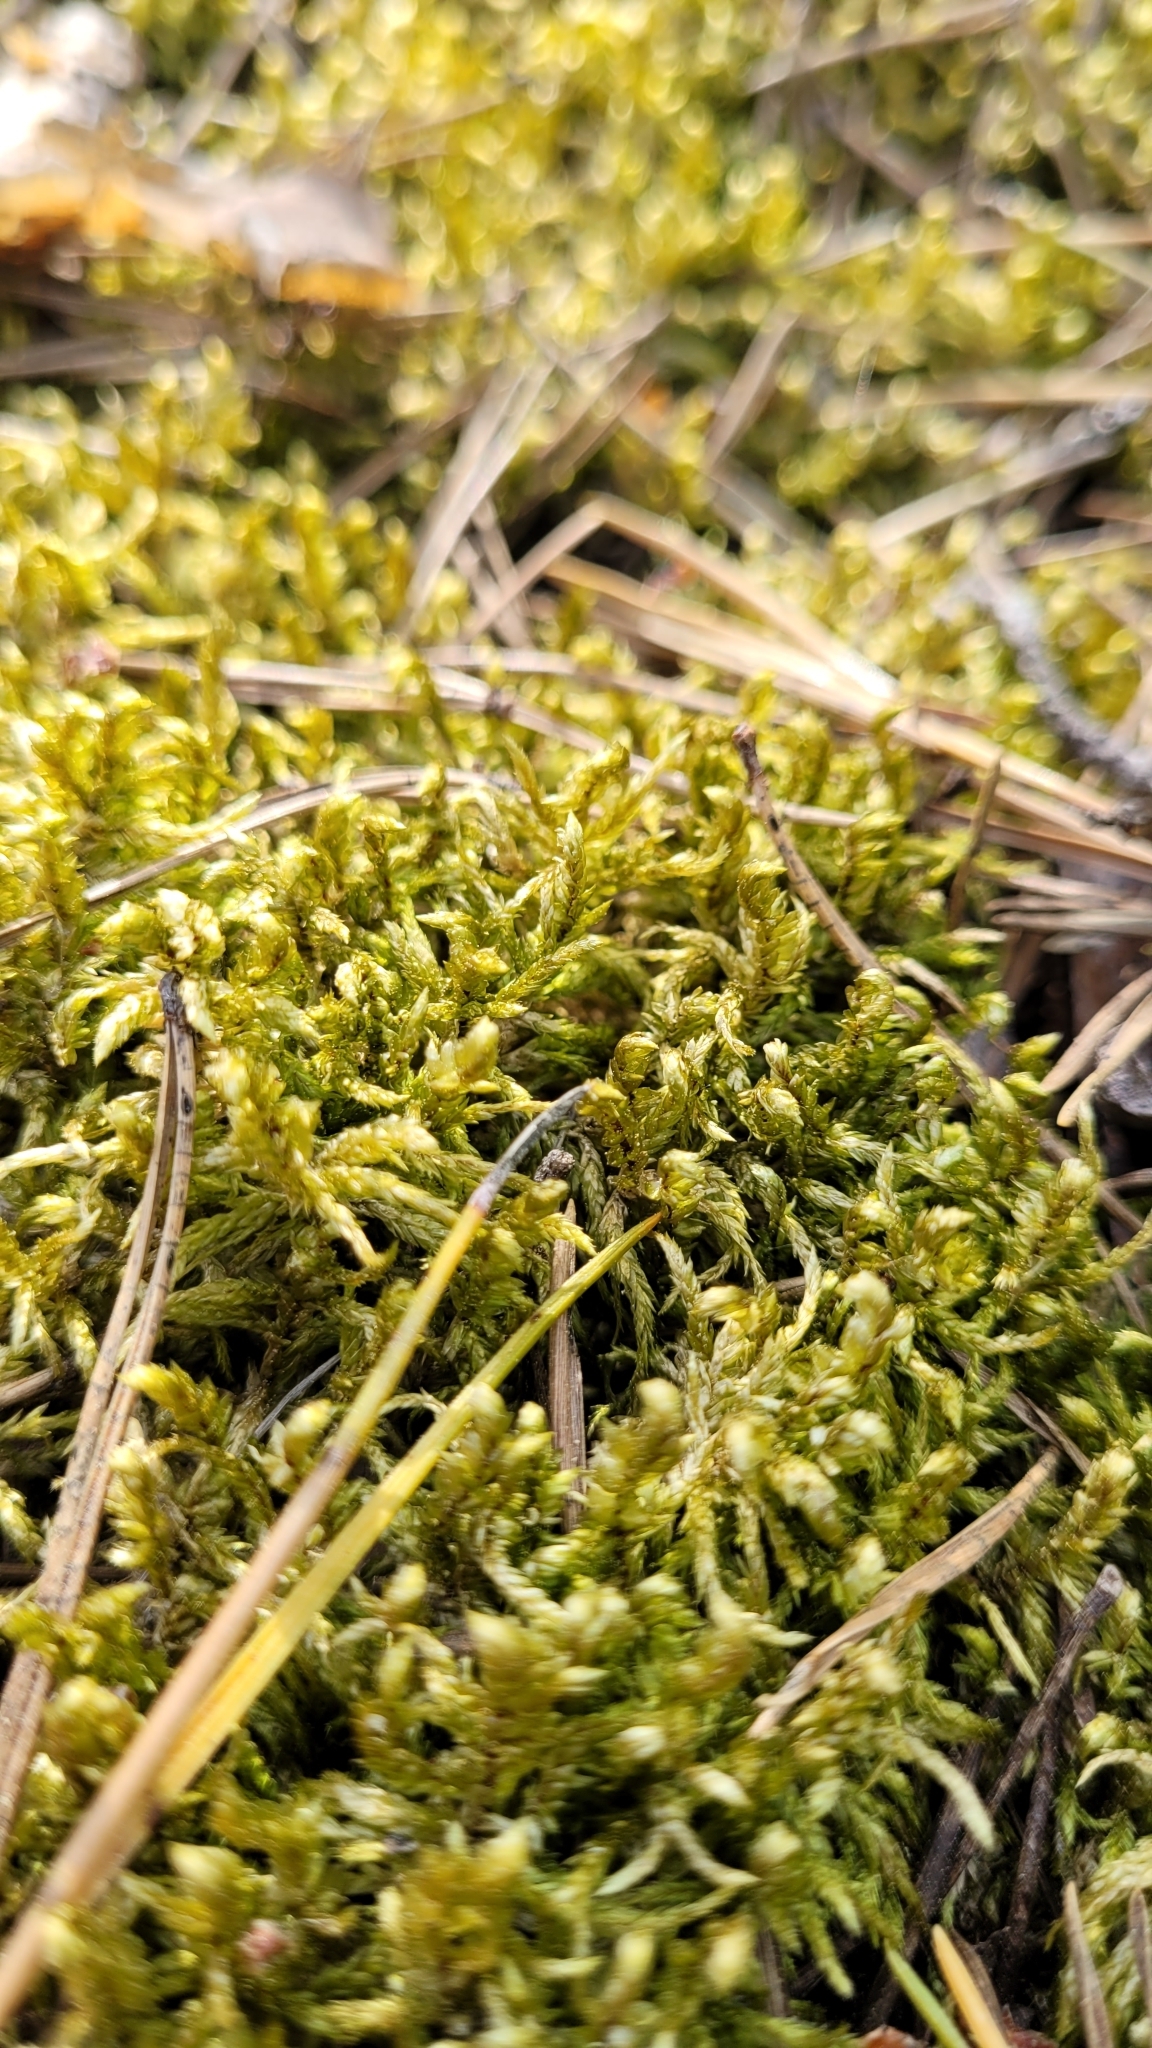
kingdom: Plantae
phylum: Bryophyta
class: Bryopsida
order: Hypnales
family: Hylocomiaceae
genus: Pleurozium
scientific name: Pleurozium schreberi
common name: Red-stemmed feather moss
